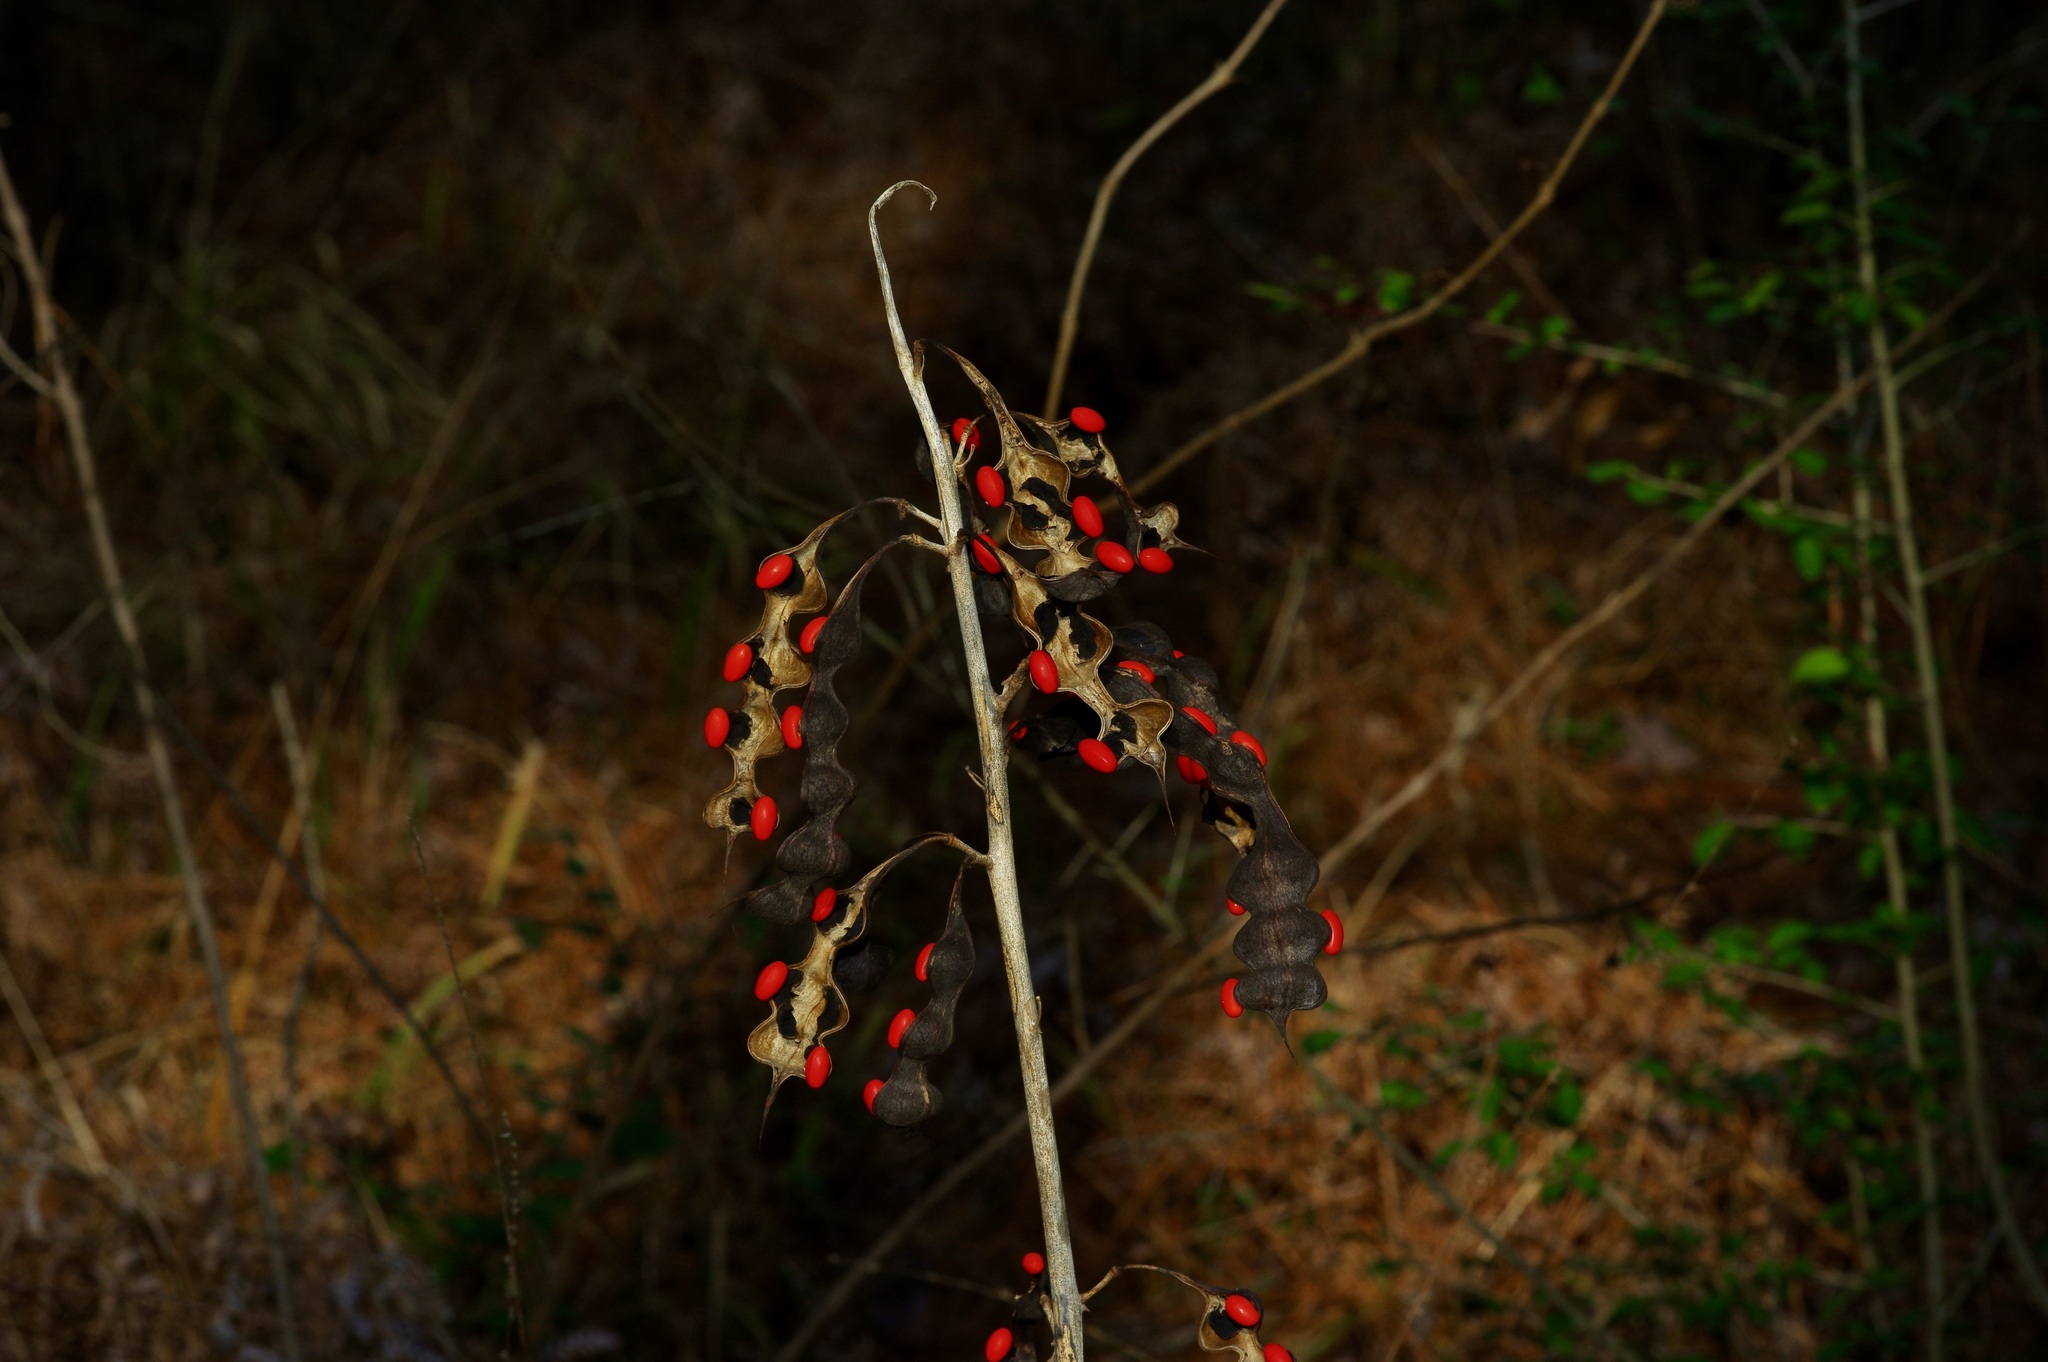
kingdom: Plantae
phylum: Tracheophyta
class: Magnoliopsida
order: Fabales
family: Fabaceae
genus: Erythrina
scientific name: Erythrina herbacea
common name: Coral-bean
